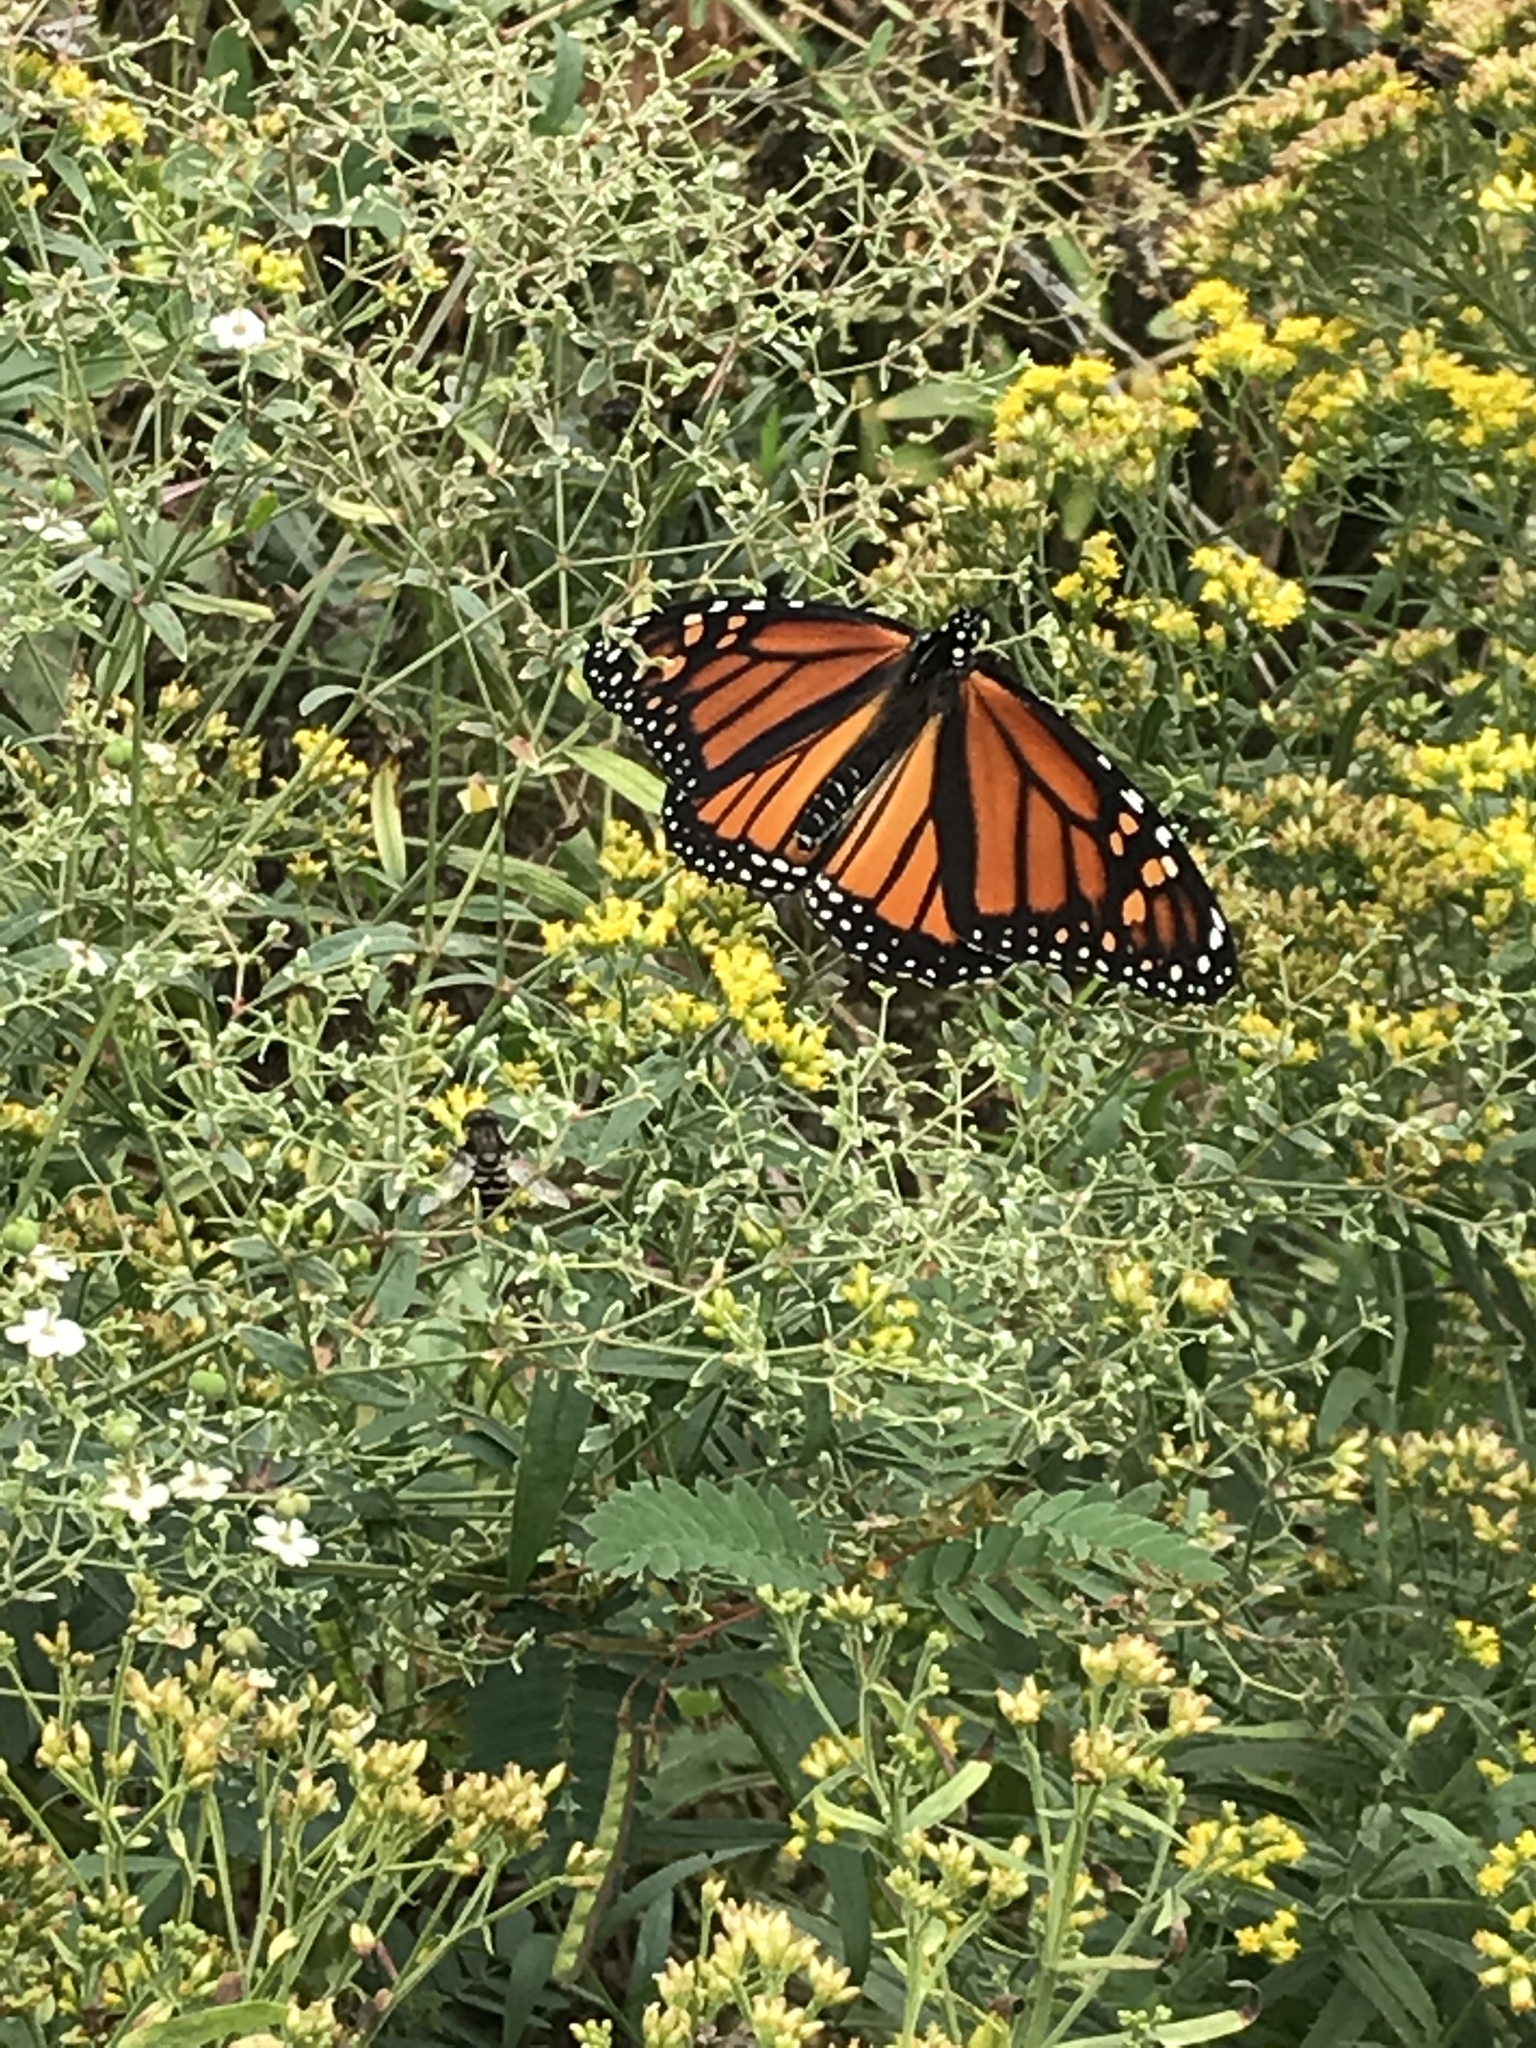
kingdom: Animalia
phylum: Arthropoda
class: Insecta
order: Lepidoptera
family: Nymphalidae
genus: Danaus
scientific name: Danaus plexippus
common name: Monarch
